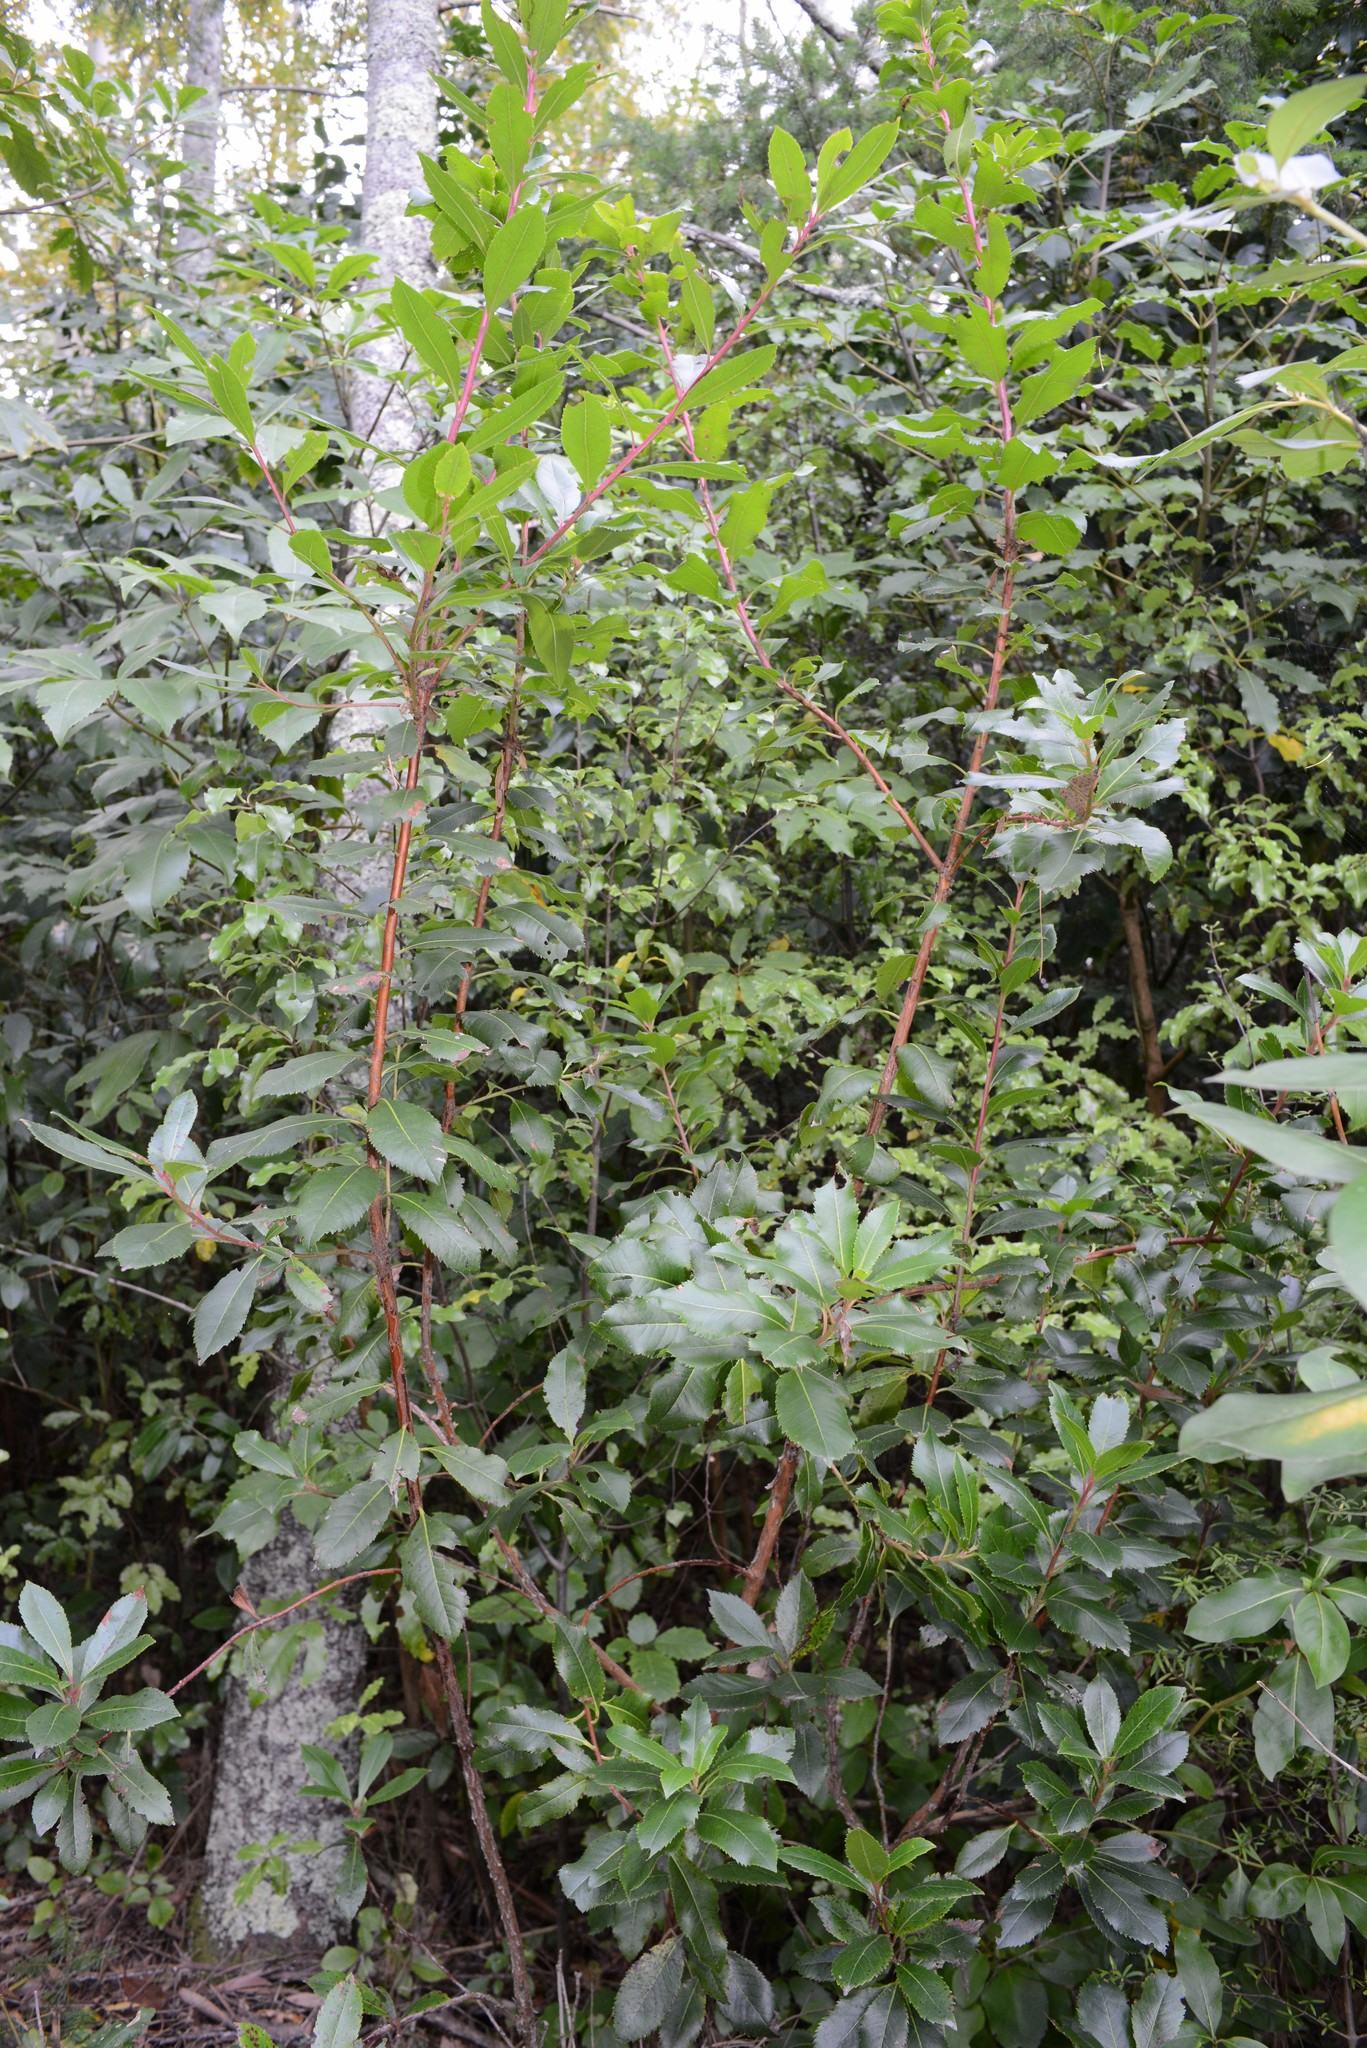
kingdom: Plantae
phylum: Tracheophyta
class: Magnoliopsida
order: Ericales
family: Ericaceae
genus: Arbutus
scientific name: Arbutus unedo
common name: Strawberry-tree
